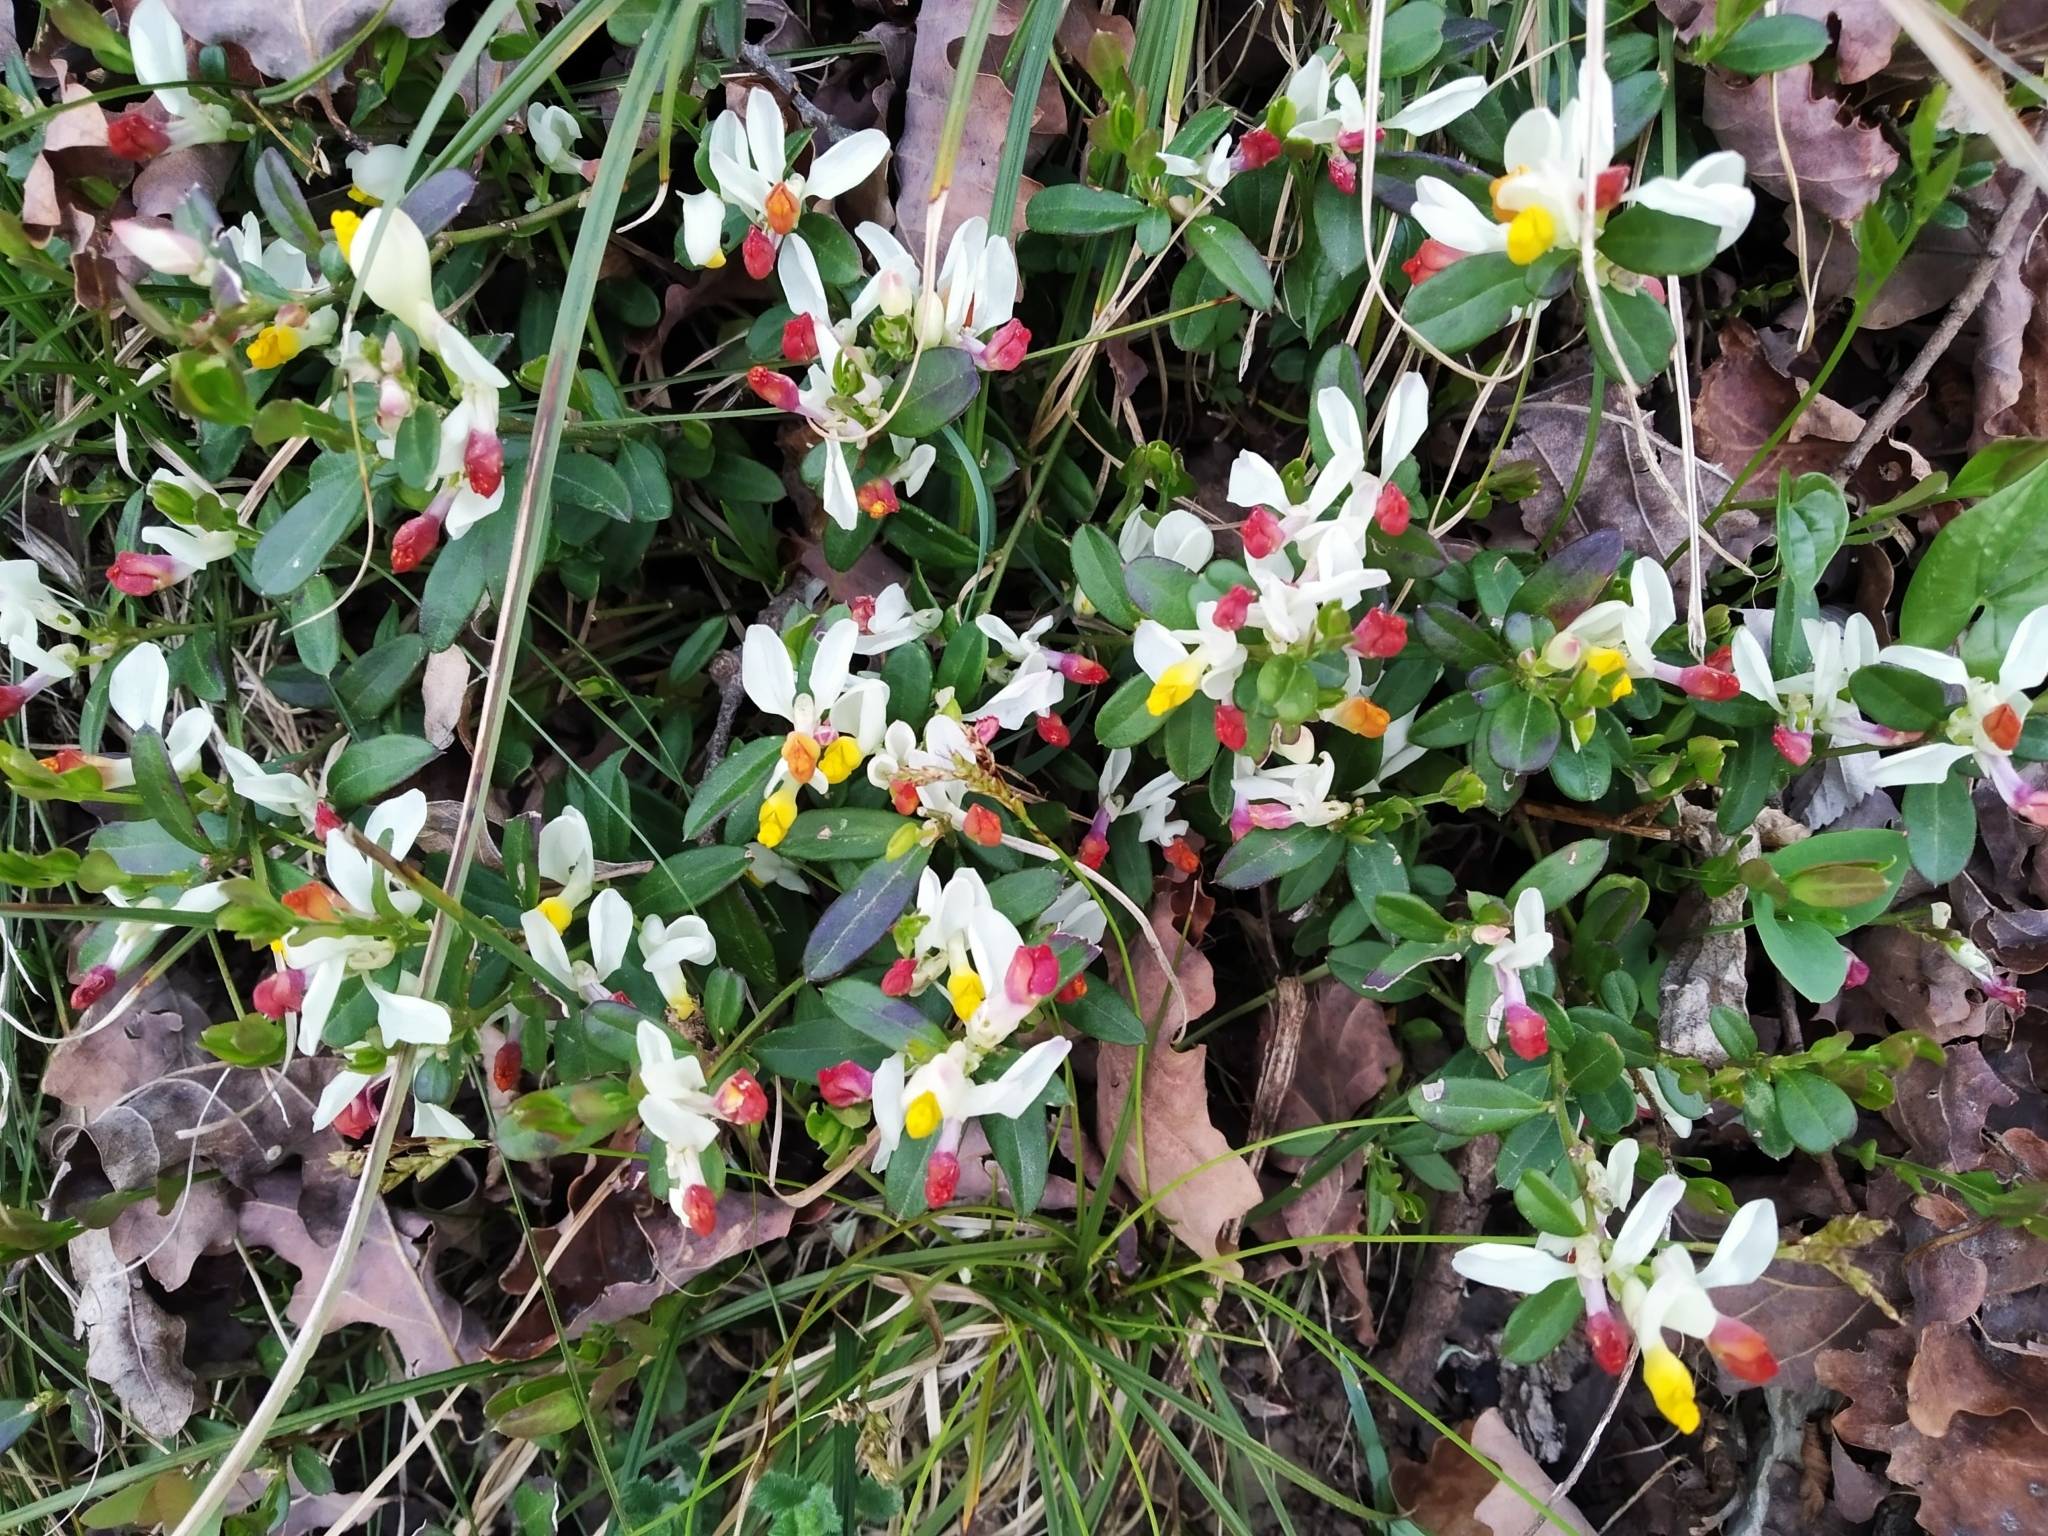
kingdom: Plantae
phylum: Tracheophyta
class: Magnoliopsida
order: Fabales
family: Polygalaceae
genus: Polygaloides
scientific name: Polygaloides chamaebuxus
